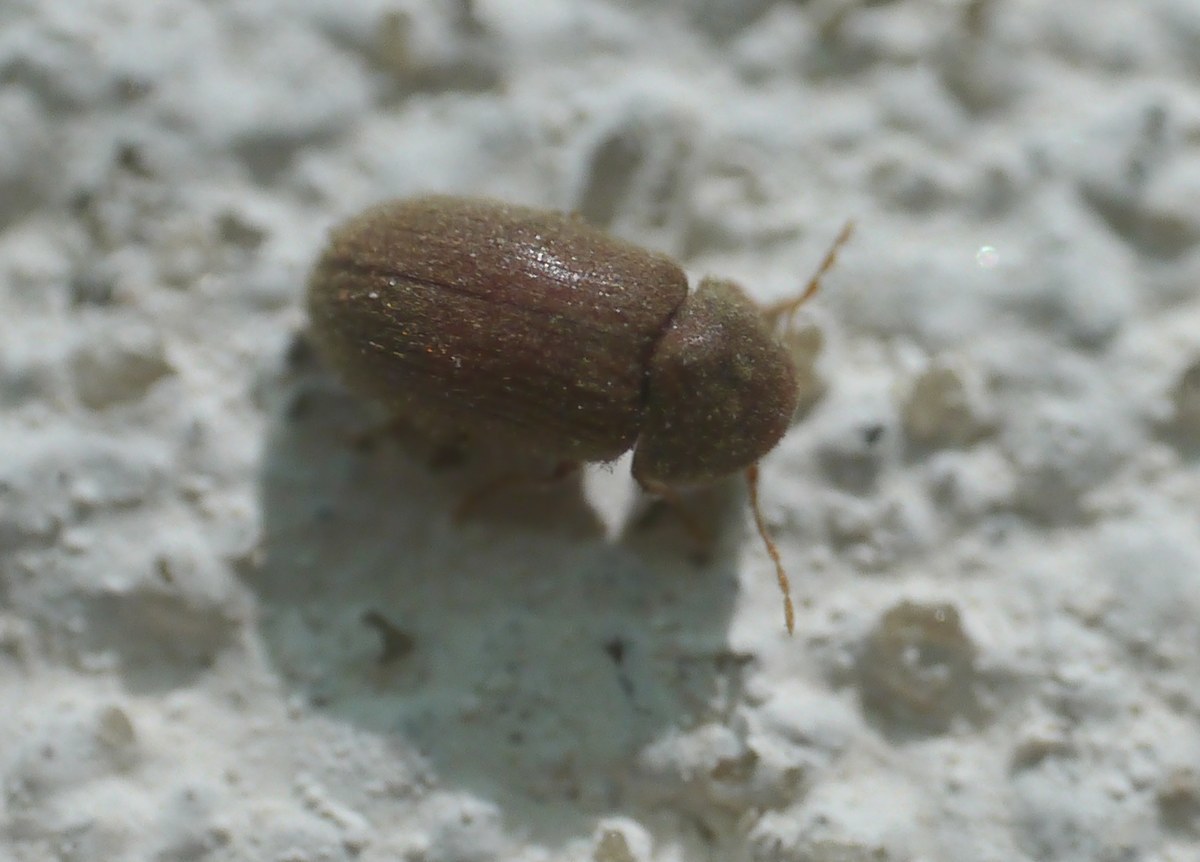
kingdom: Animalia
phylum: Arthropoda
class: Insecta
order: Coleoptera
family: Anobiidae
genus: Stegobium
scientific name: Stegobium paniceum
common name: Drugstore beetle
